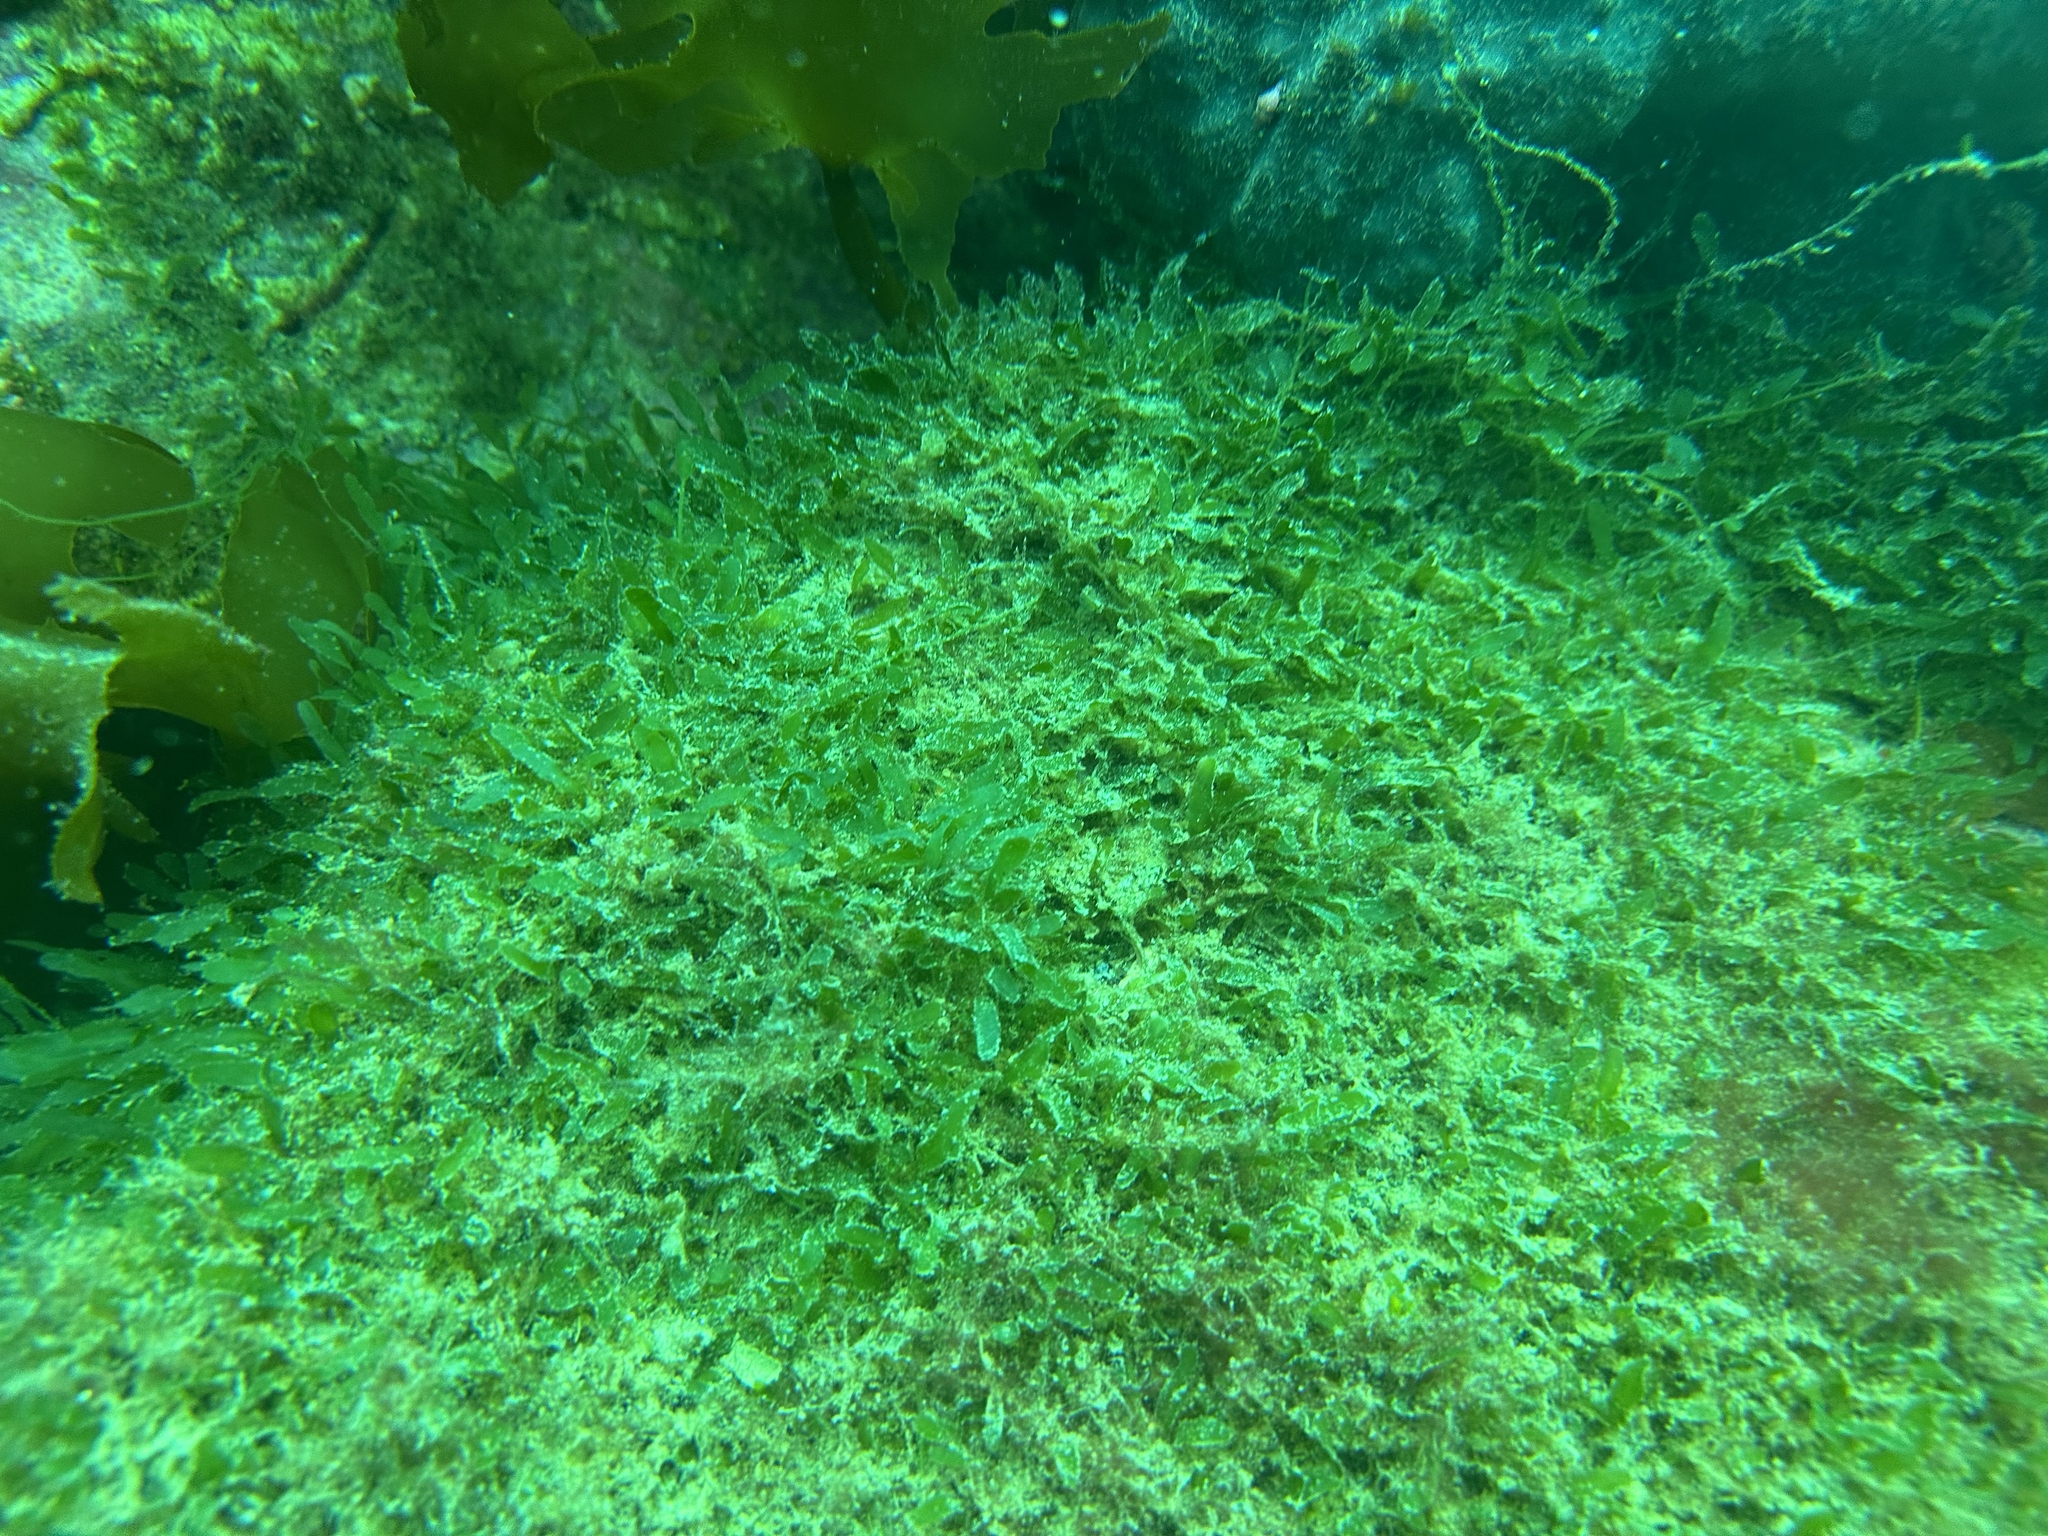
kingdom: Plantae
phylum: Chlorophyta
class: Ulvophyceae
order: Bryopsidales
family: Caulerpaceae
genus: Caulerpa
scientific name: Caulerpa brachypus
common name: Macroalgae
